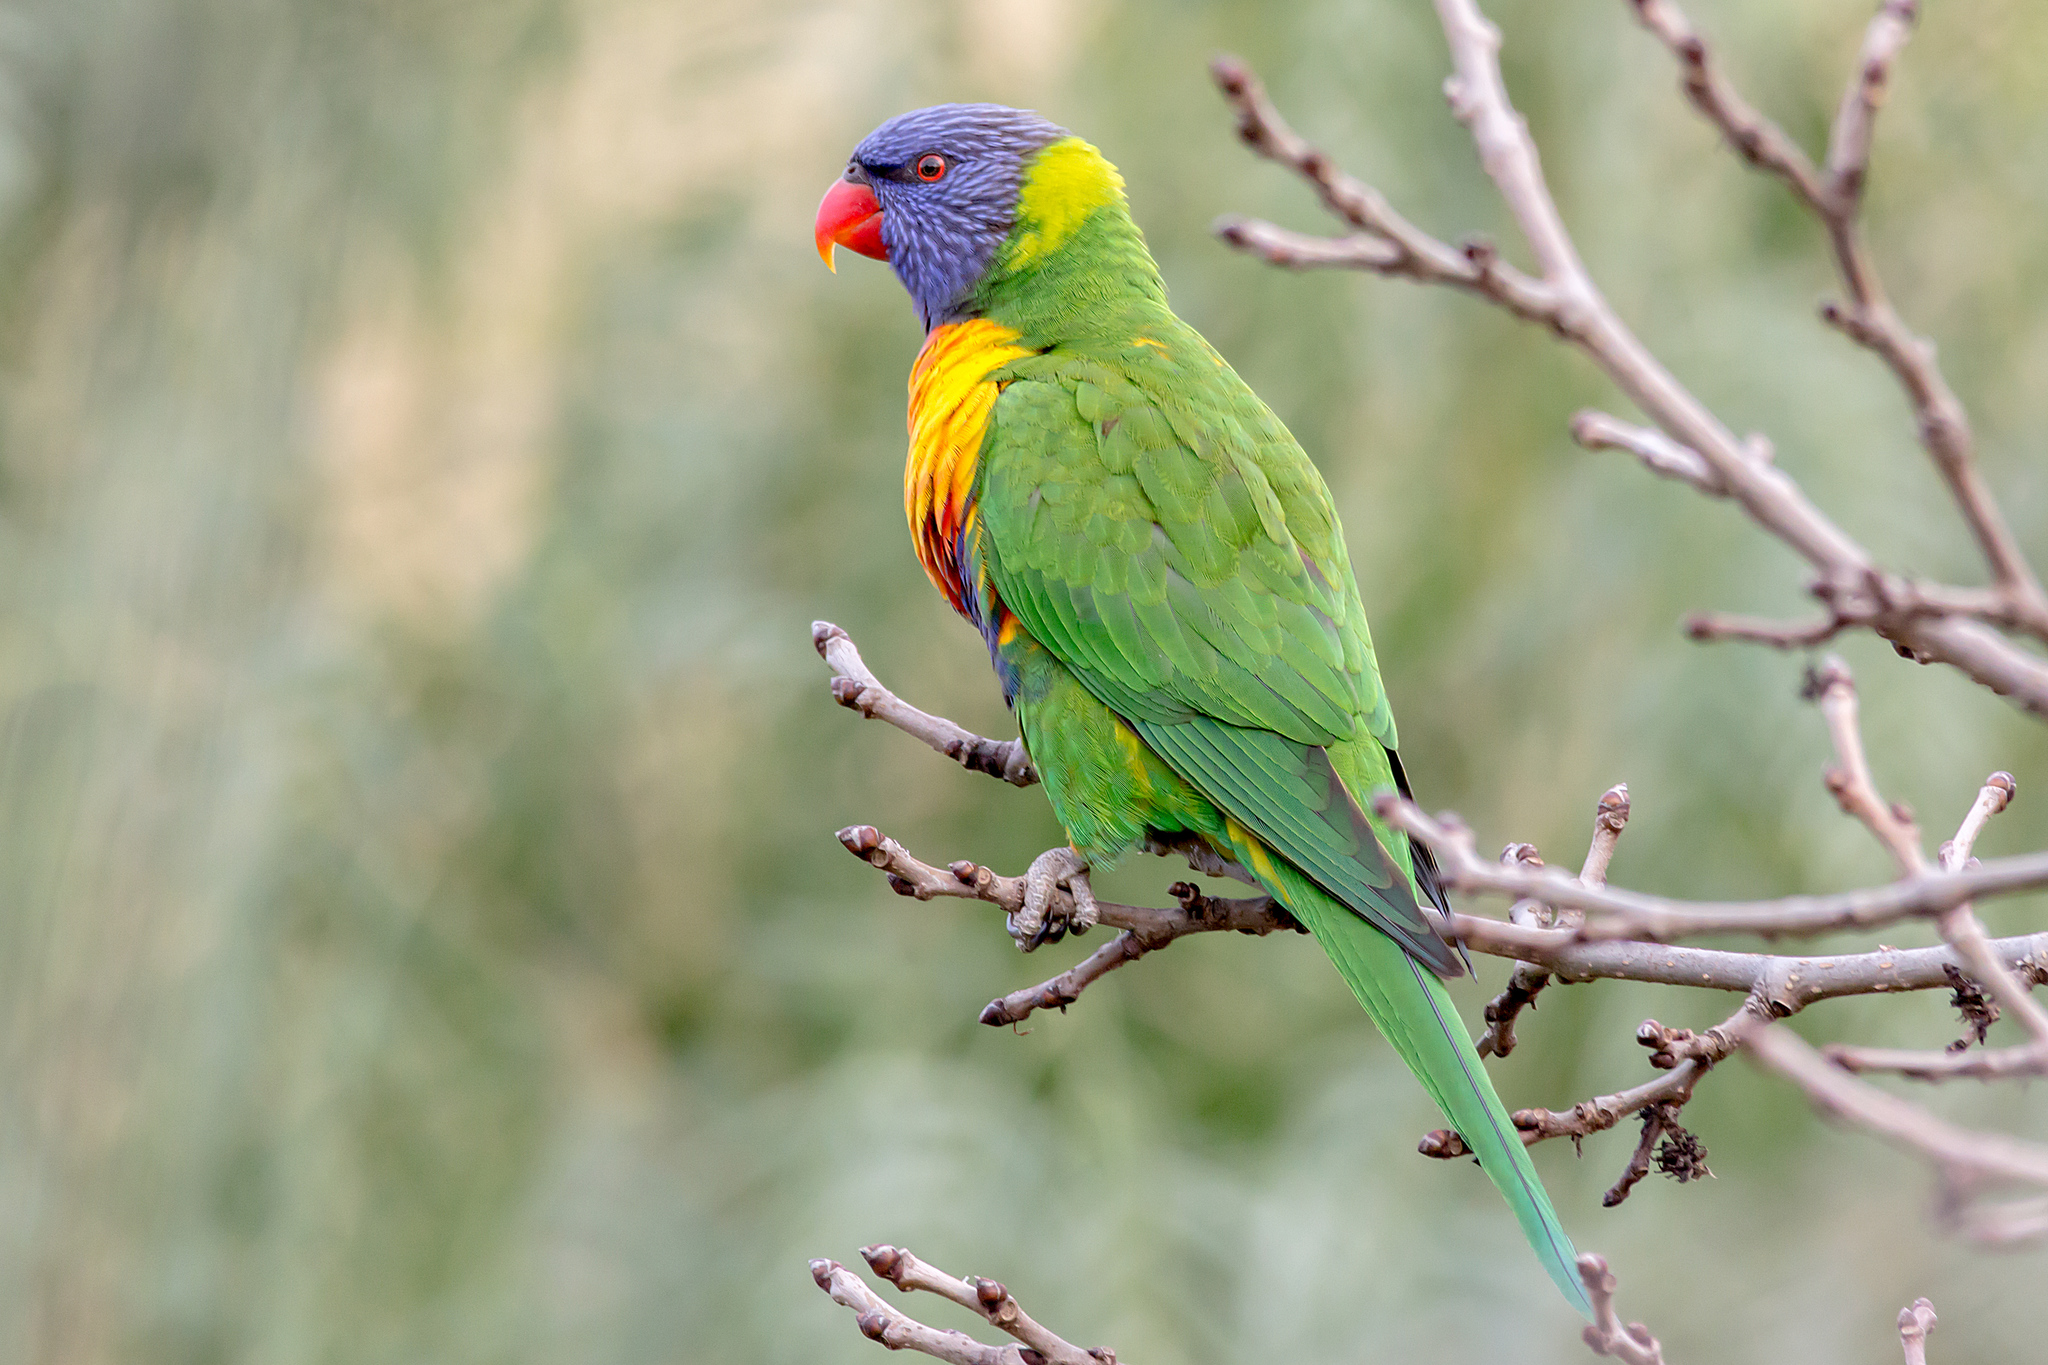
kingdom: Animalia
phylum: Chordata
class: Aves
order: Psittaciformes
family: Psittacidae
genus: Trichoglossus
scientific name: Trichoglossus haematodus
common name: Coconut lorikeet
